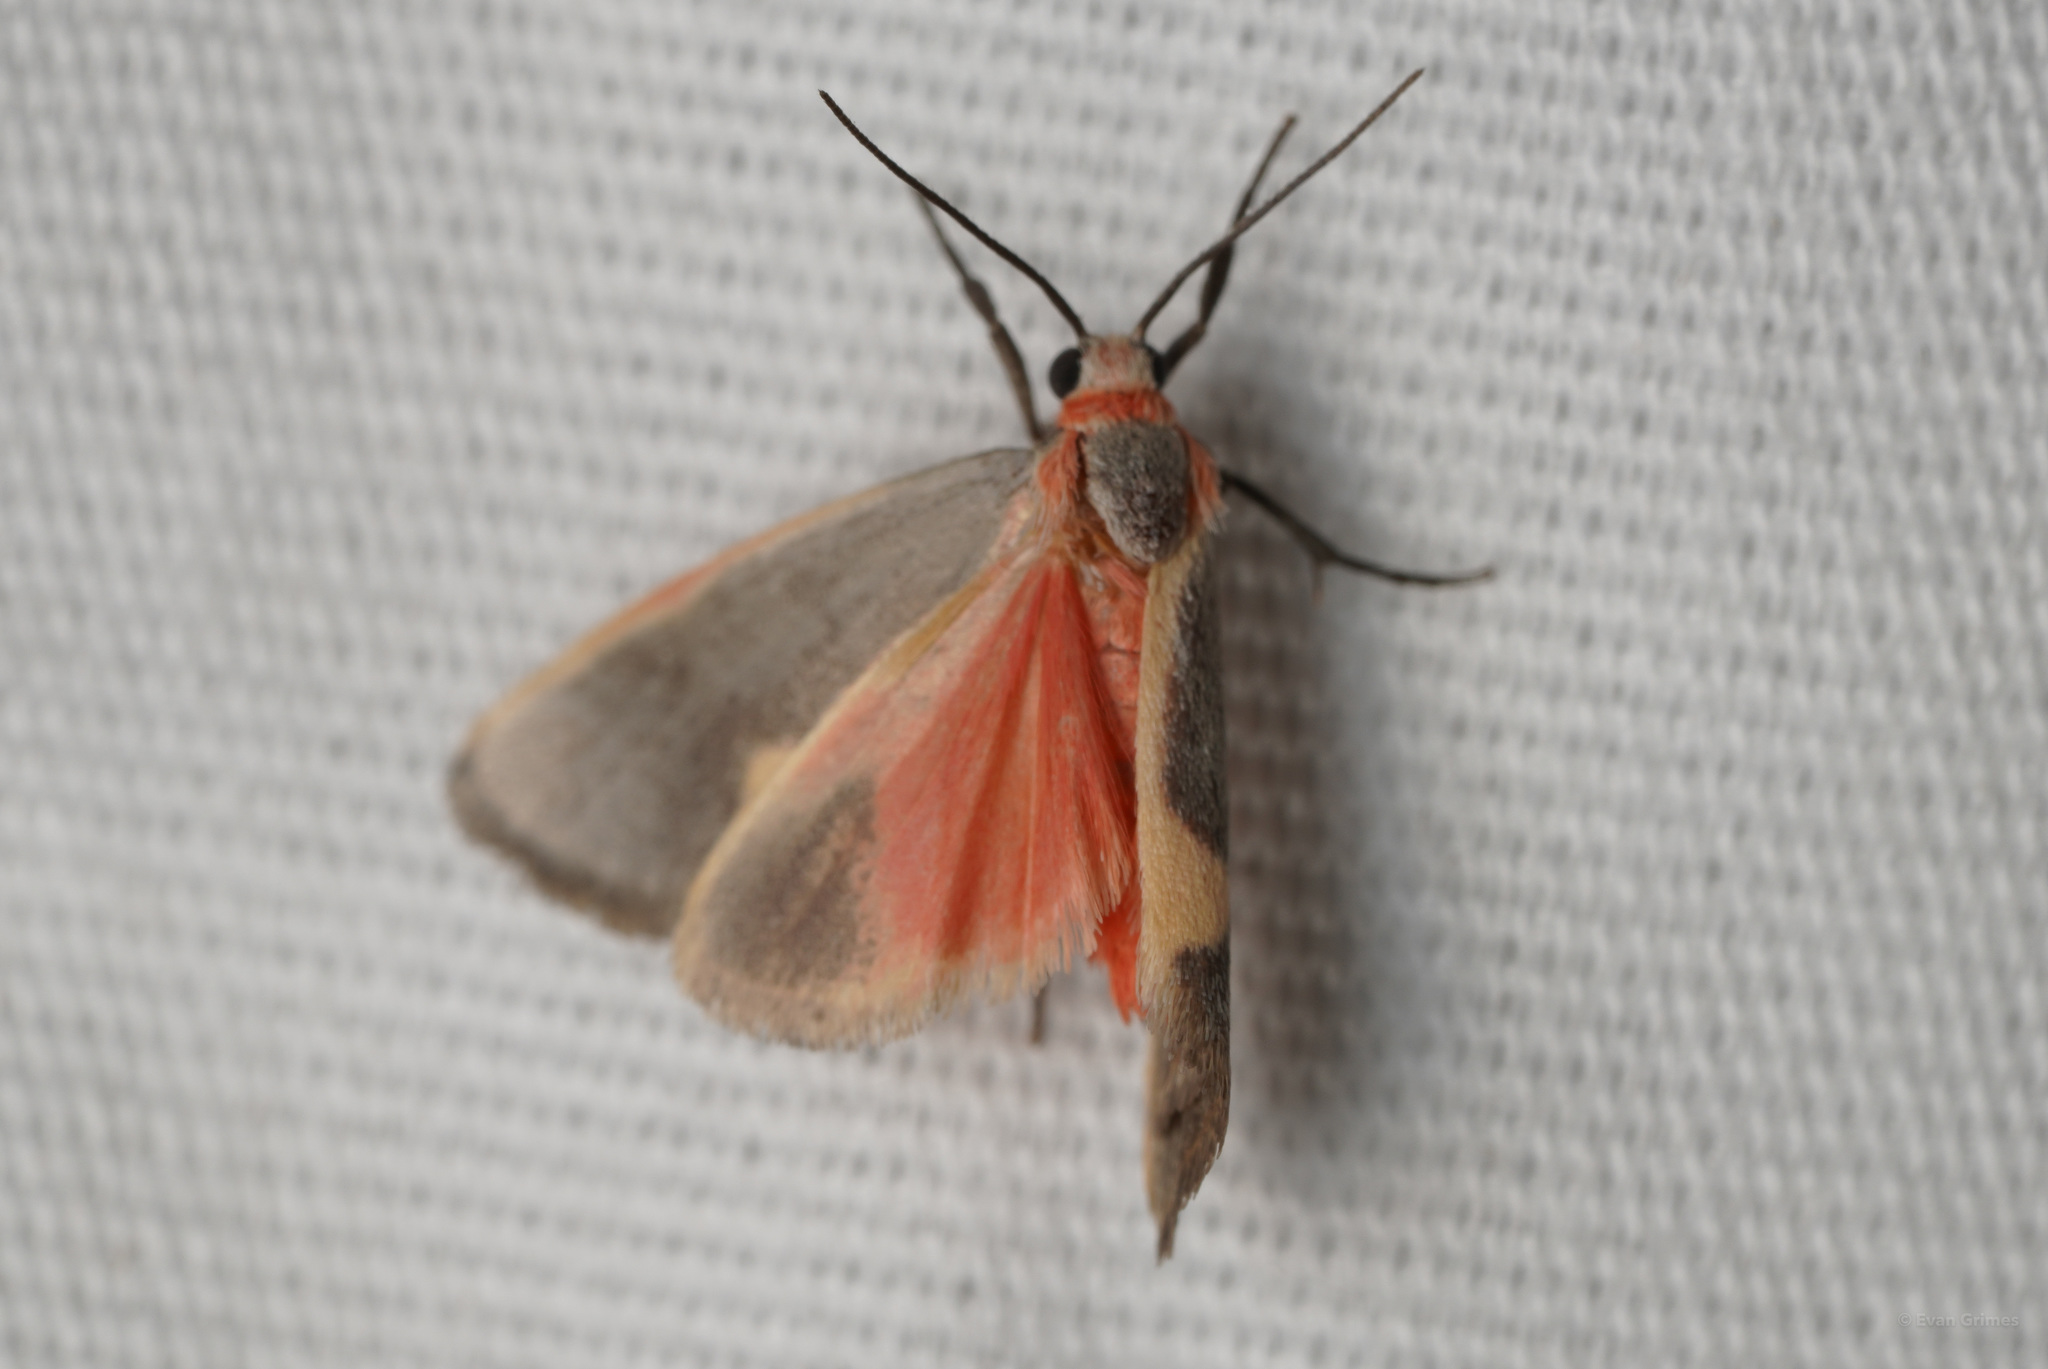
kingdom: Animalia
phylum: Arthropoda
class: Insecta
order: Lepidoptera
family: Erebidae
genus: Cisthene
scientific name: Cisthene plumbea
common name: Lead colored lichen moth
